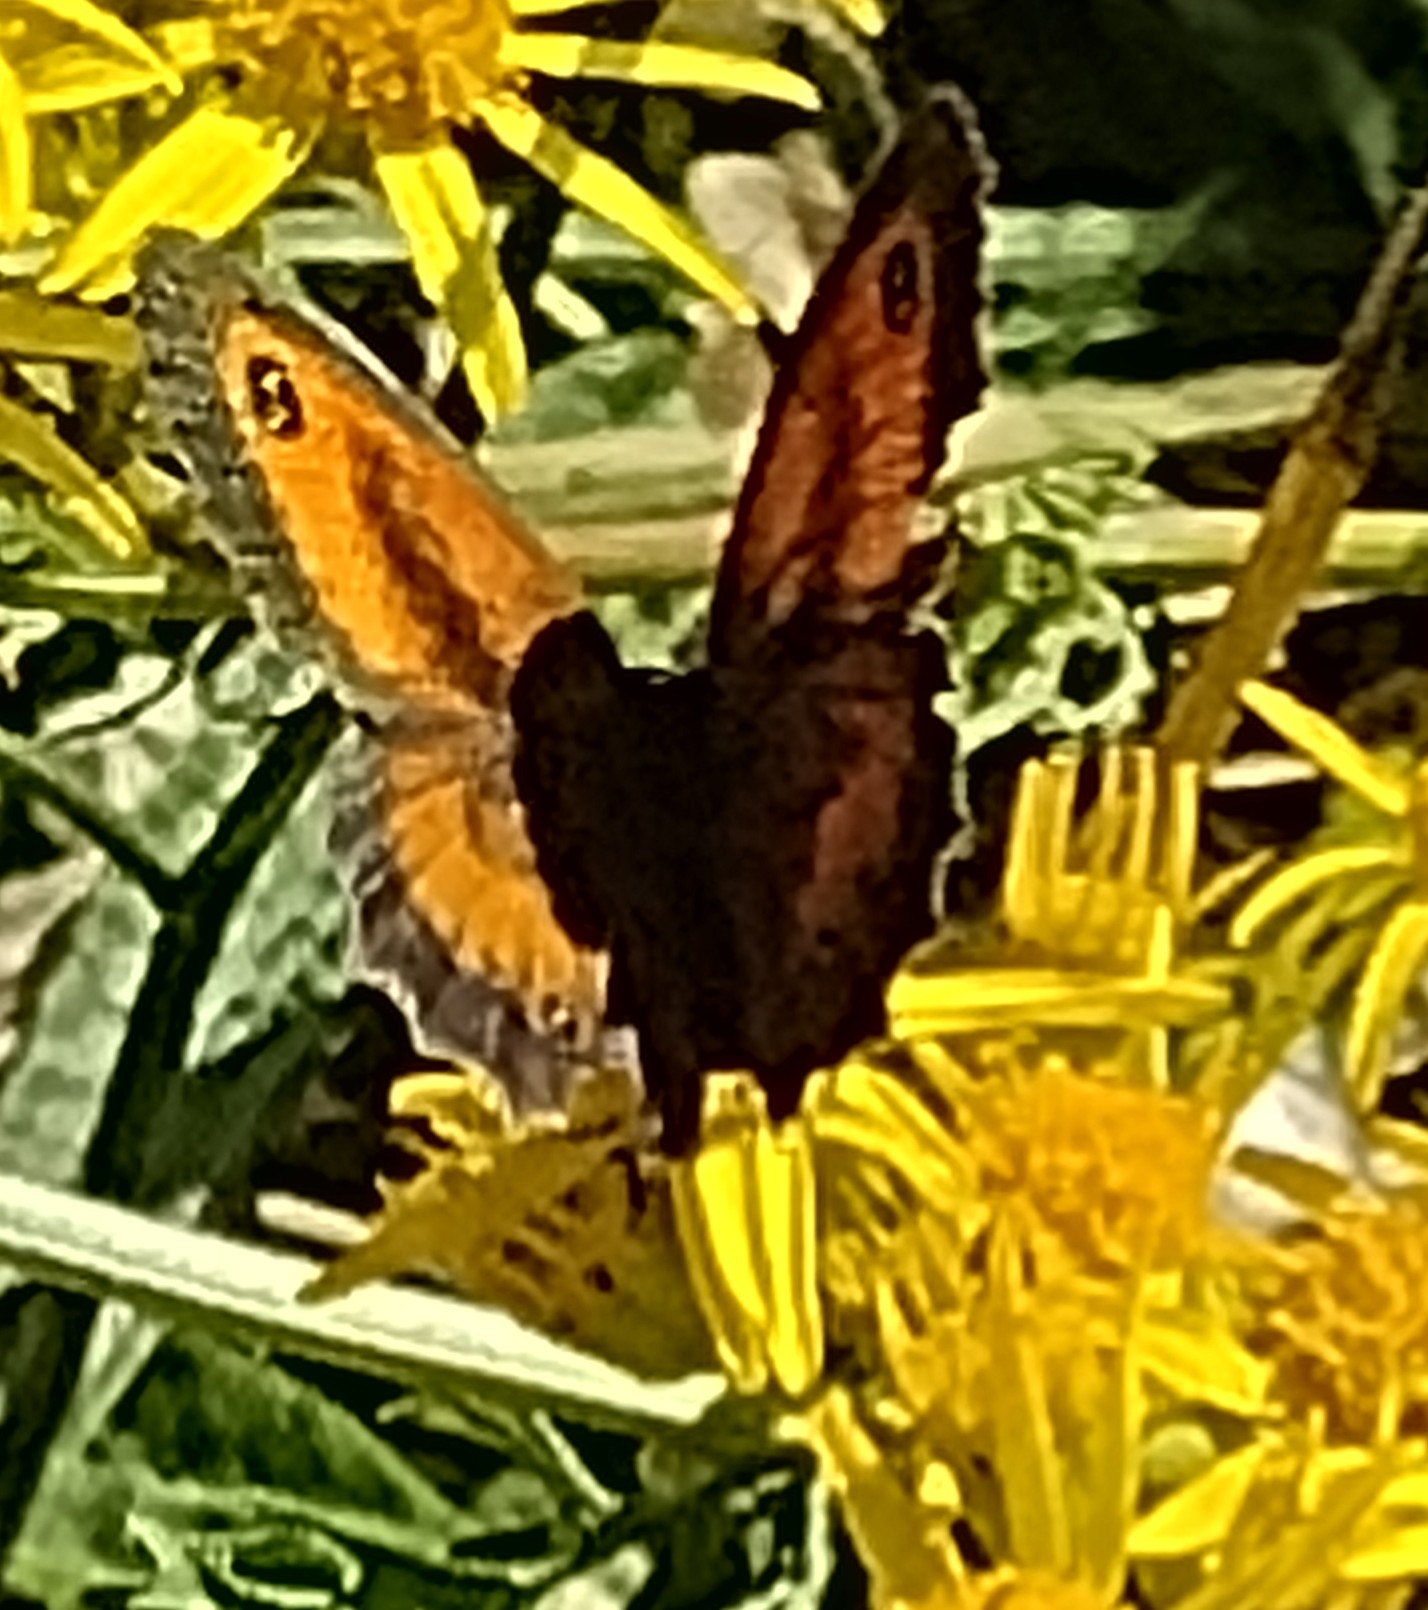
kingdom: Animalia
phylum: Arthropoda
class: Insecta
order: Lepidoptera
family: Nymphalidae
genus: Pyronia
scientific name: Pyronia tithonus
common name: Gatekeeper
